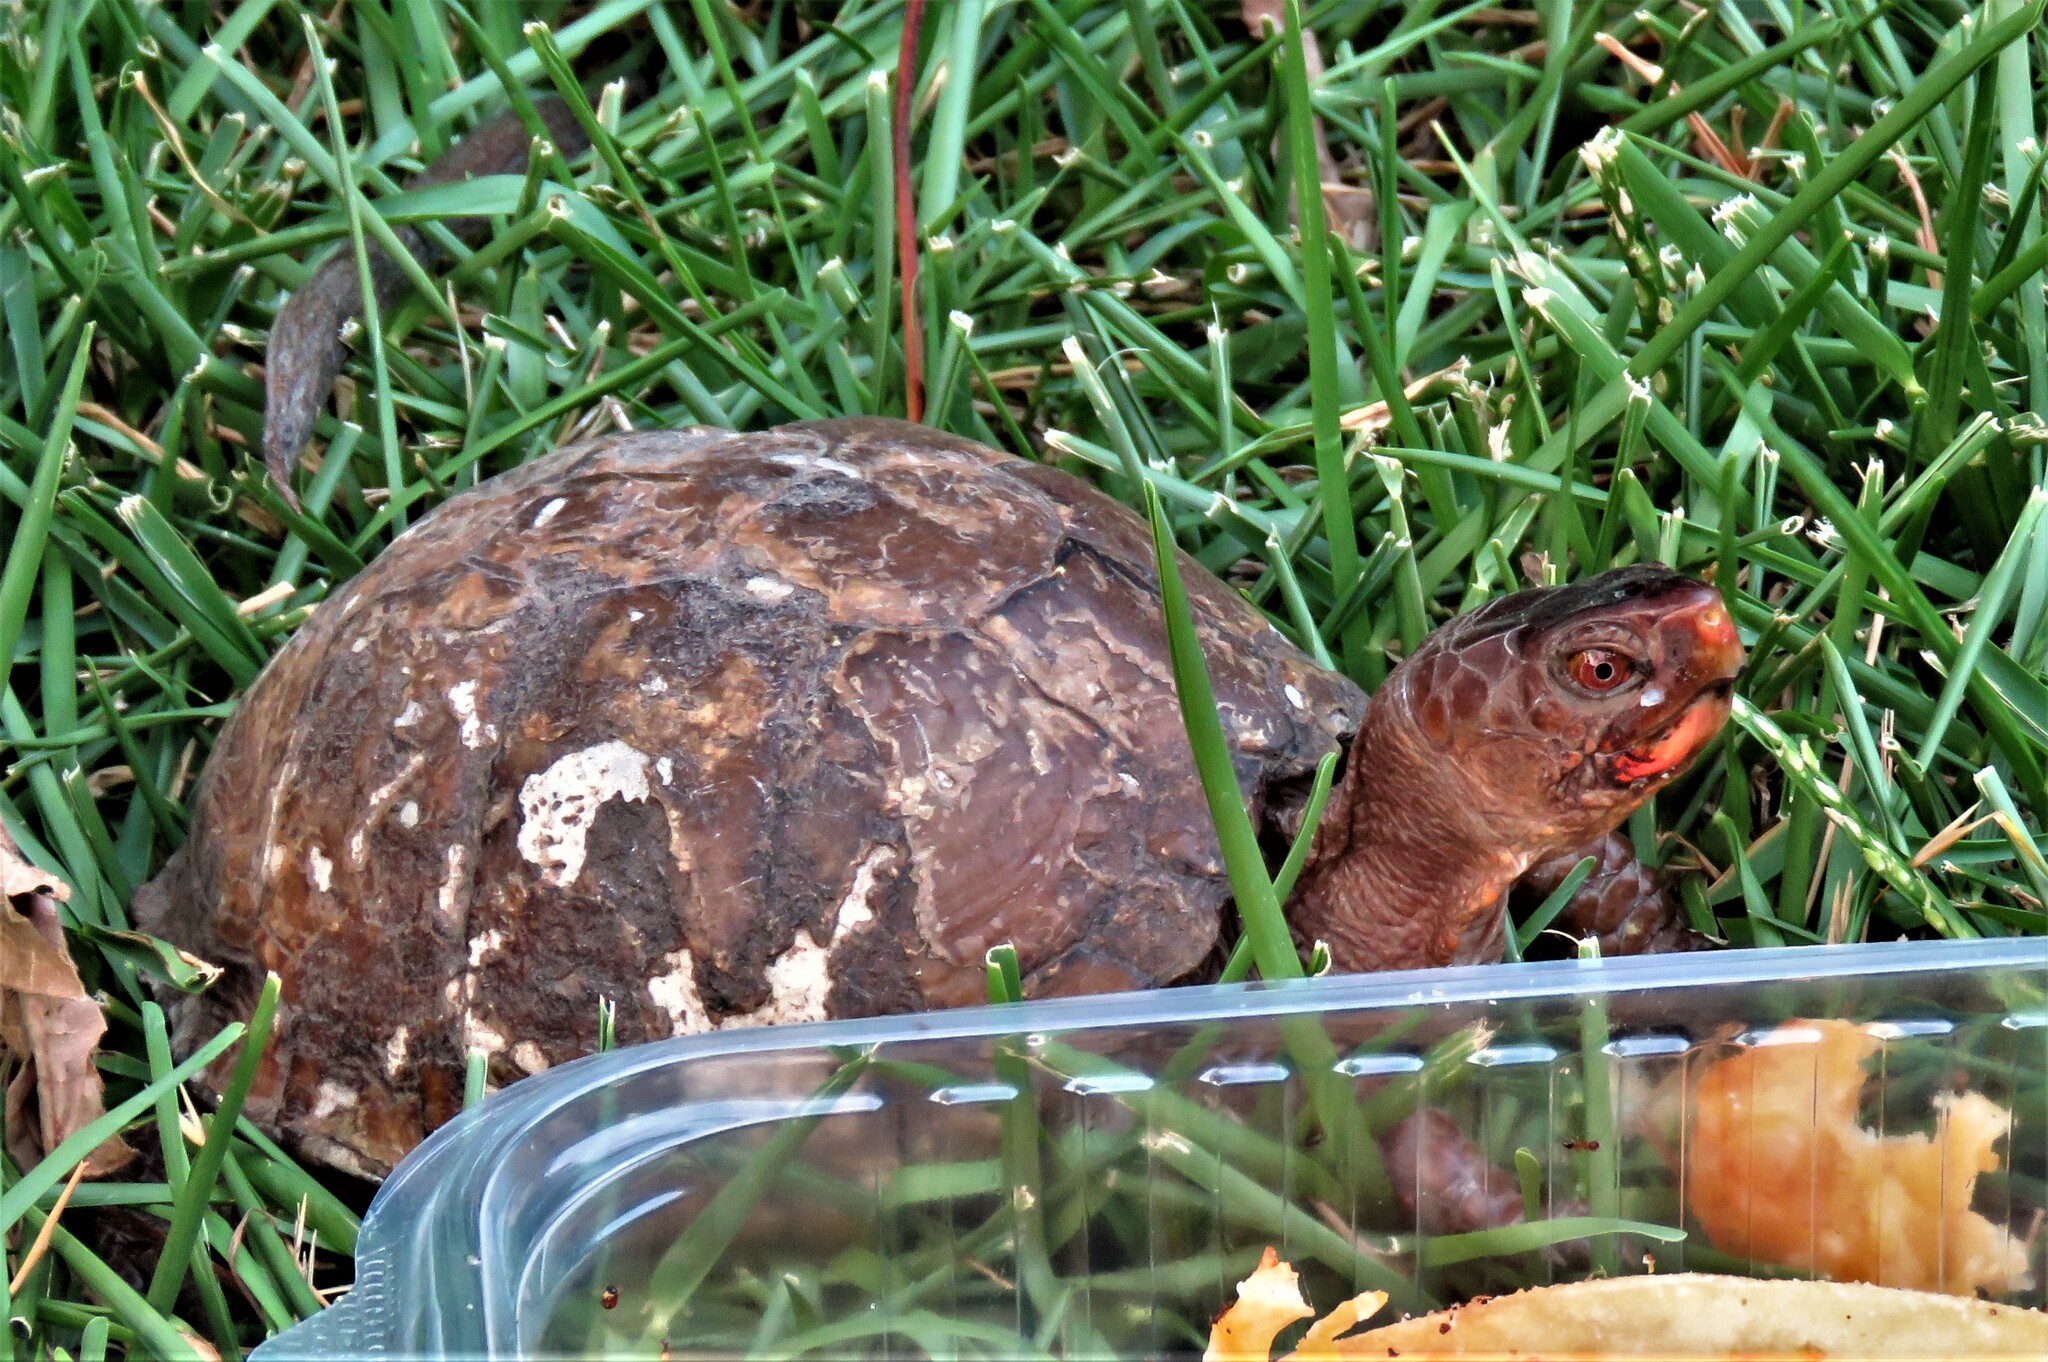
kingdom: Animalia
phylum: Chordata
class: Testudines
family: Emydidae
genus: Terrapene
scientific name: Terrapene carolina
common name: Common box turtle
